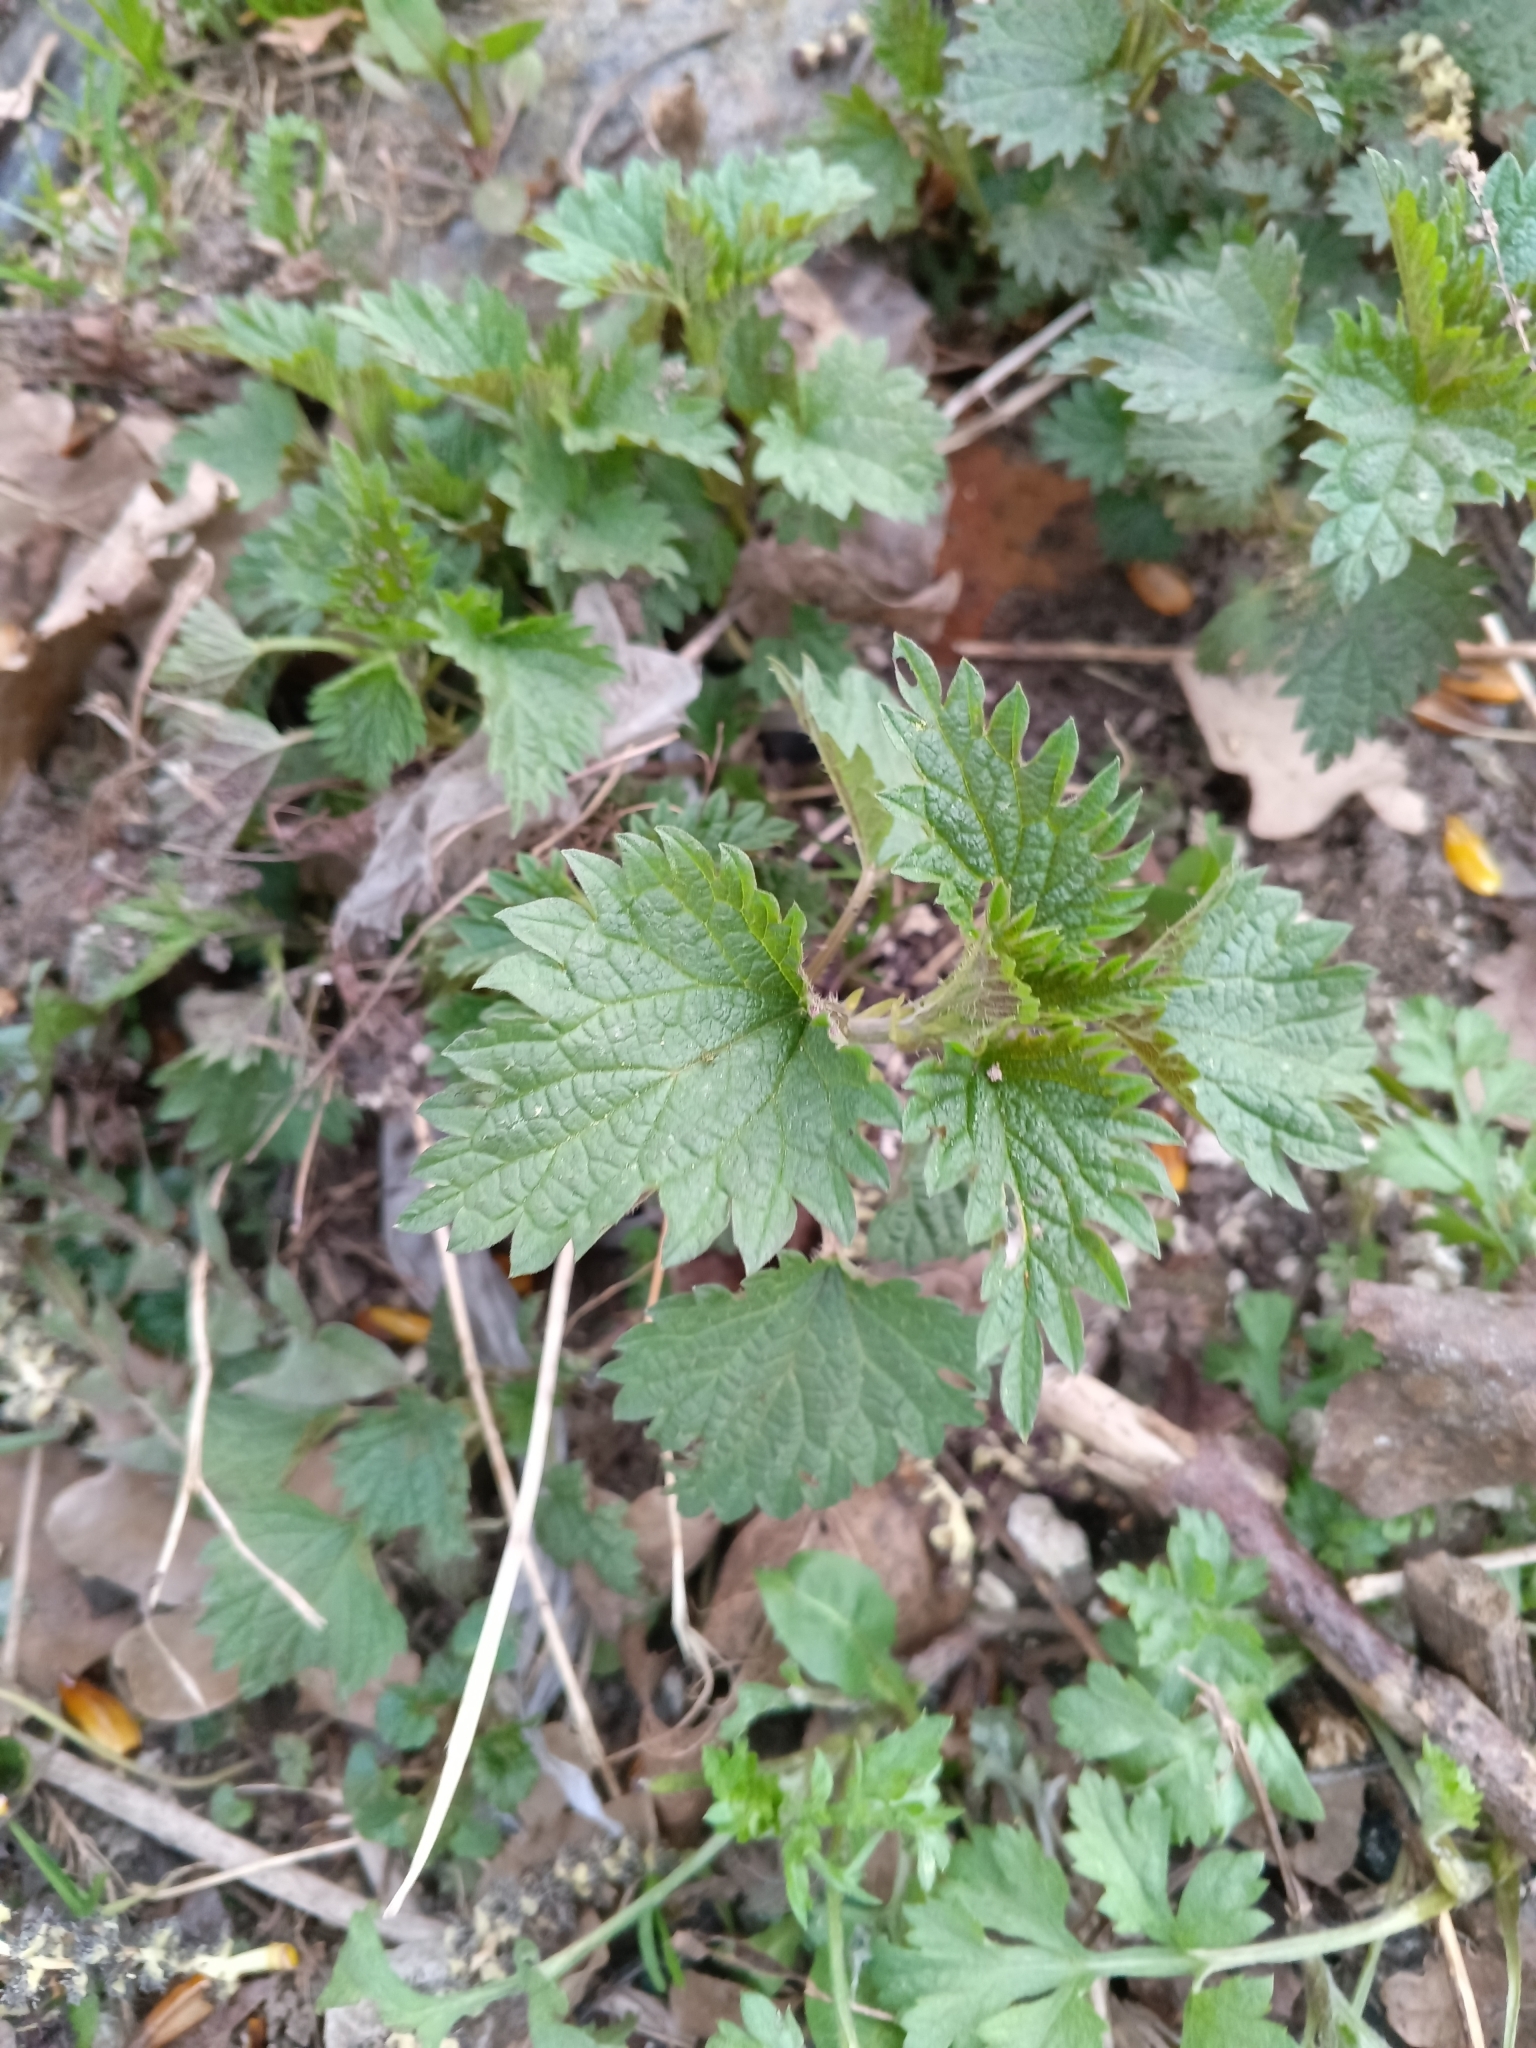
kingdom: Plantae
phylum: Tracheophyta
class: Magnoliopsida
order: Rosales
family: Urticaceae
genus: Urtica
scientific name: Urtica dioica
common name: Common nettle
